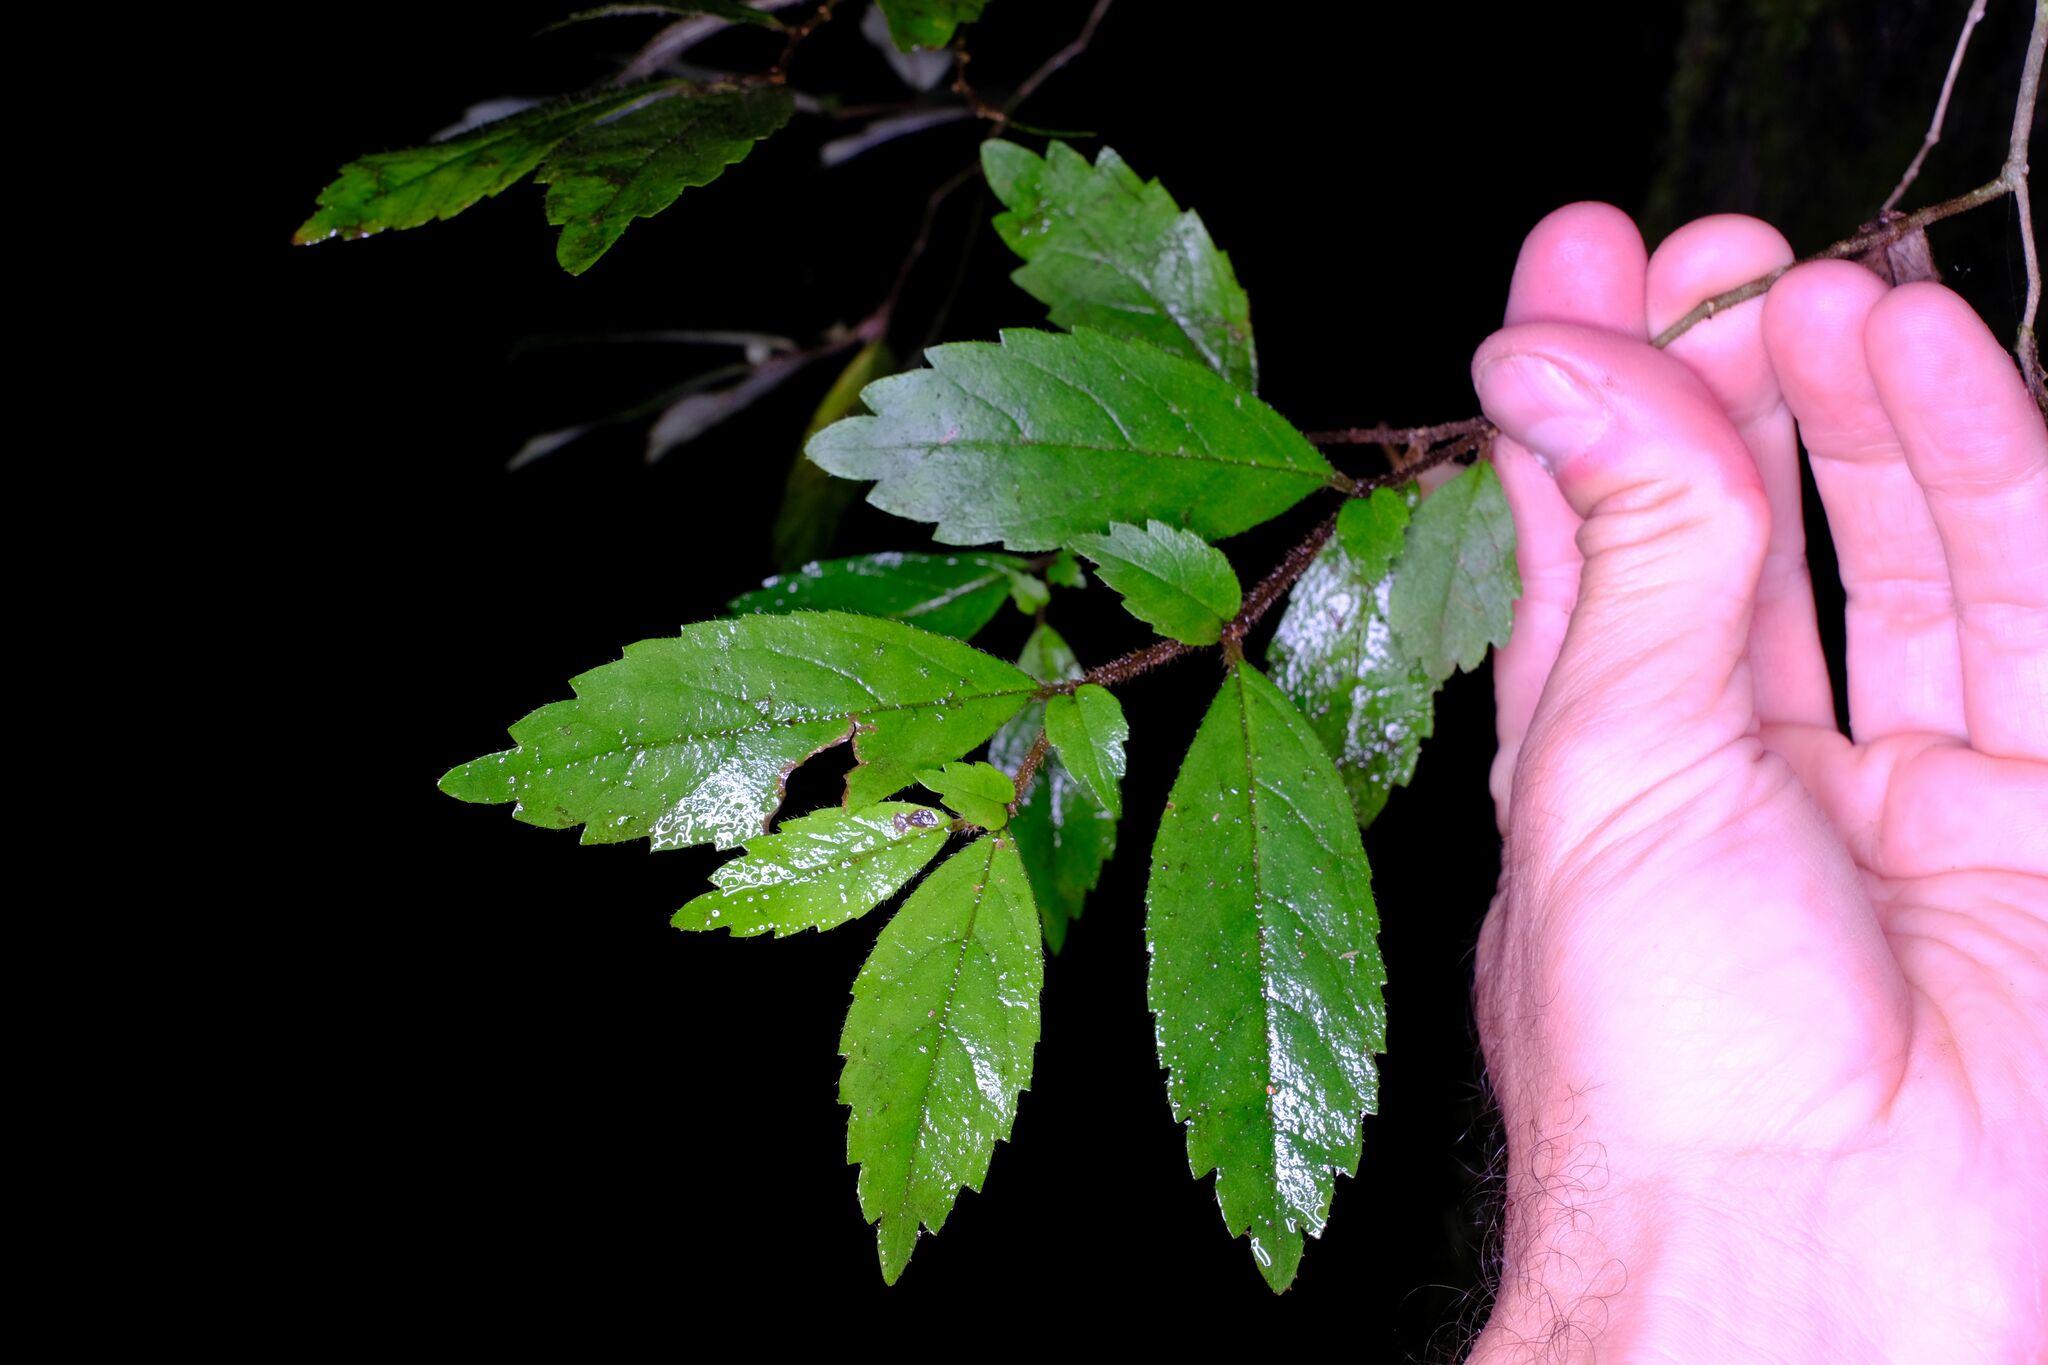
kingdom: Plantae
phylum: Tracheophyta
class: Magnoliopsida
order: Lamiales
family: Gesneriaceae
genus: Fieldia
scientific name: Fieldia australis
